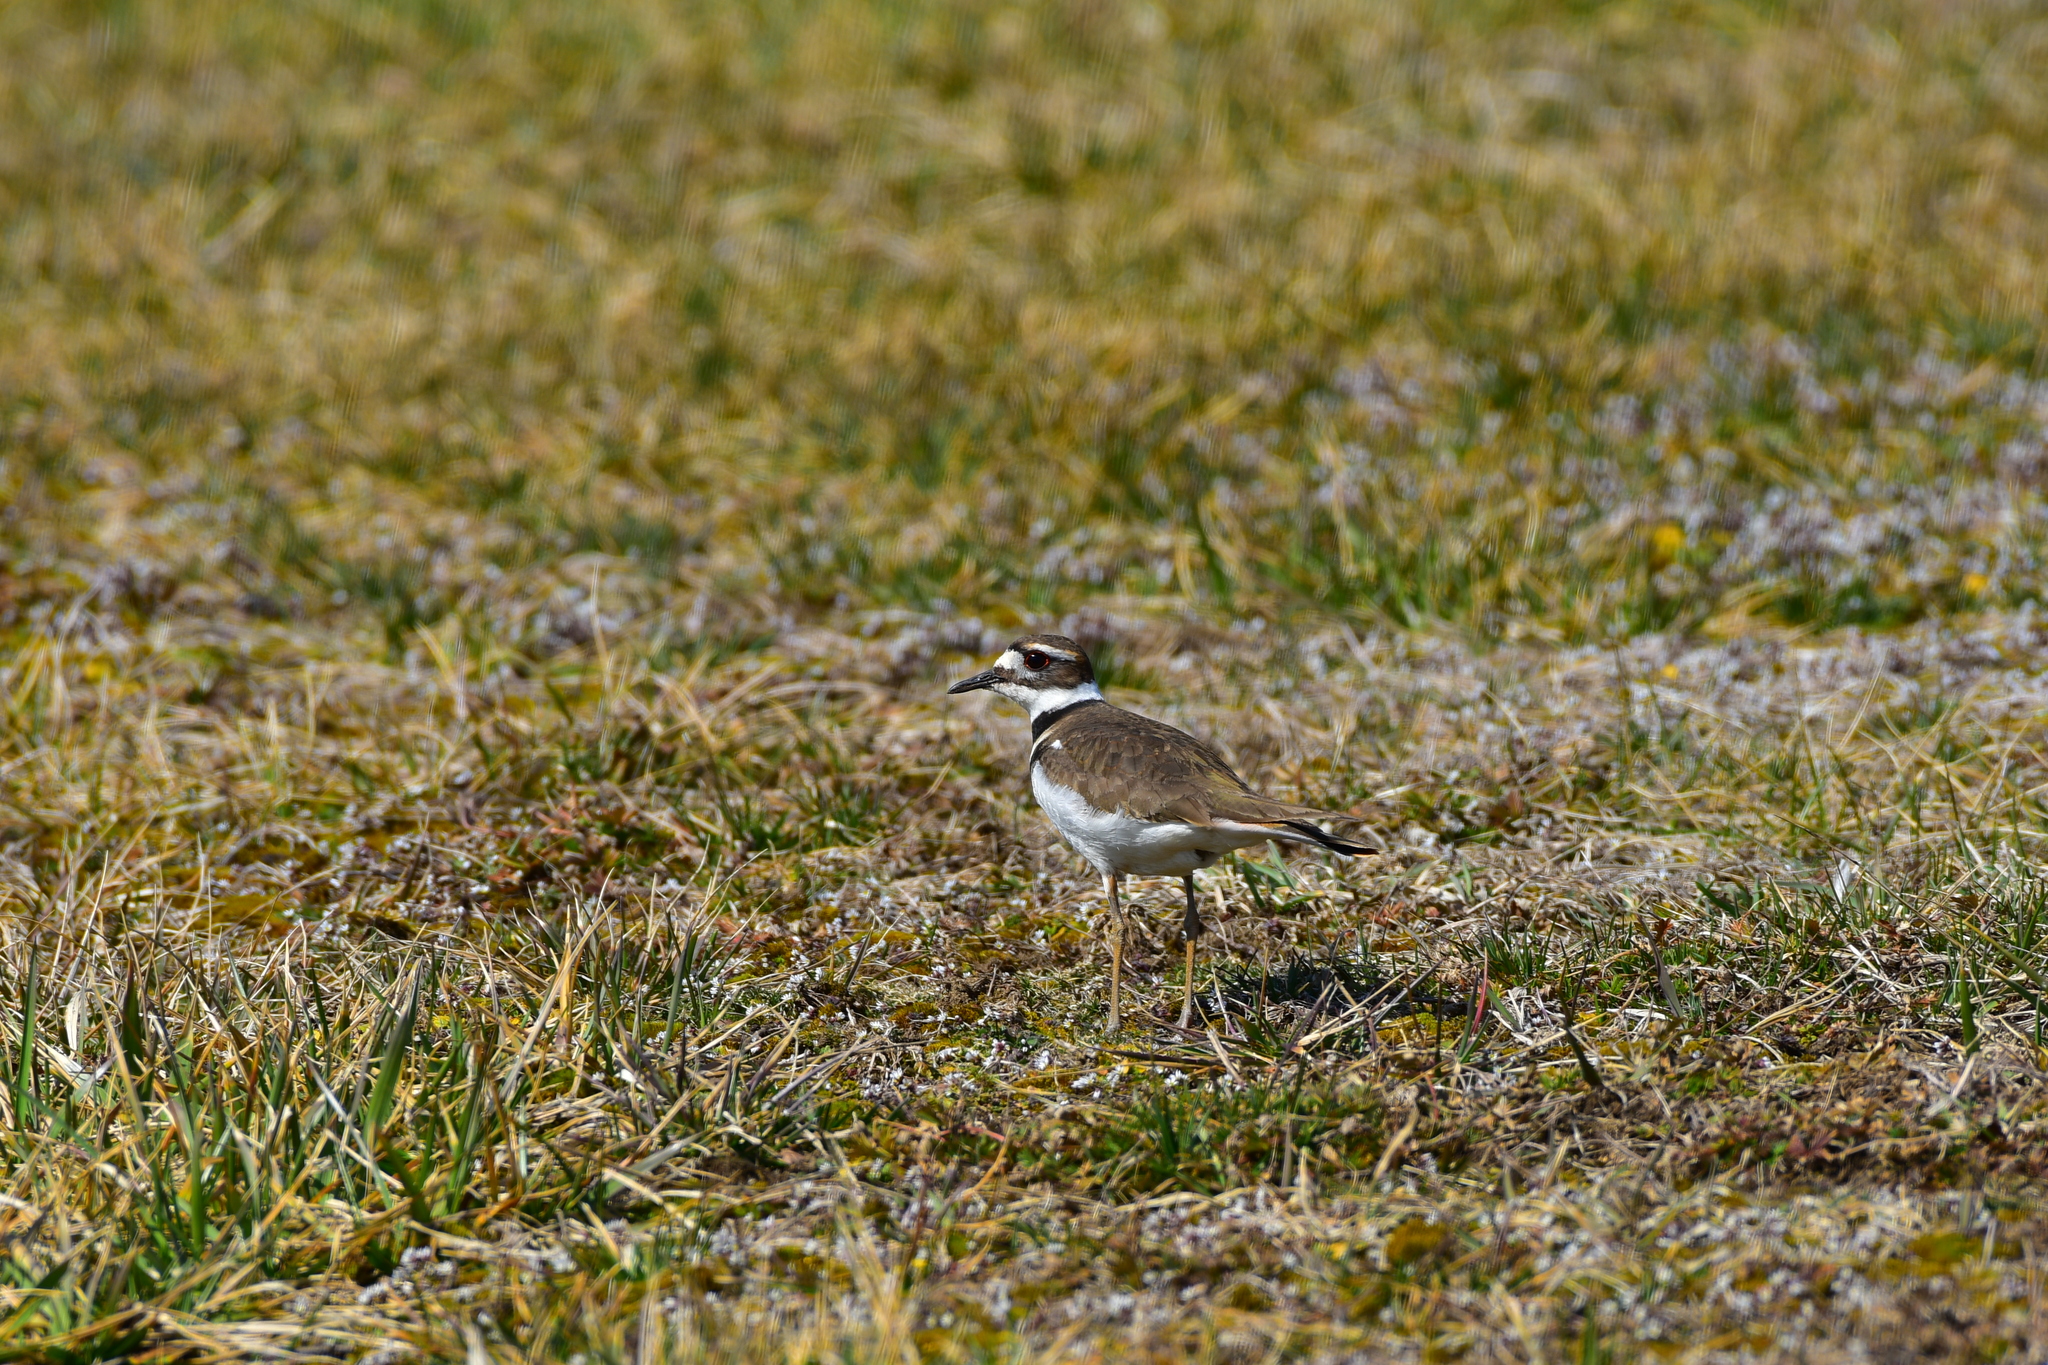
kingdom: Animalia
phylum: Chordata
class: Aves
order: Charadriiformes
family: Charadriidae
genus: Charadrius
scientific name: Charadrius vociferus
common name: Killdeer
